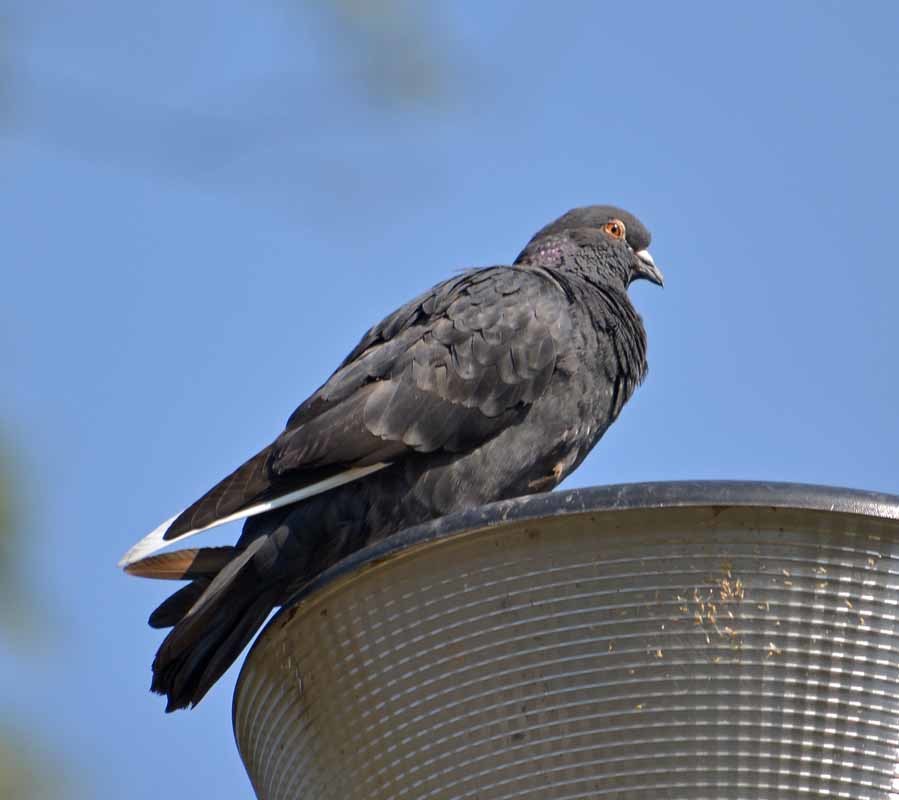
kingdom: Animalia
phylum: Chordata
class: Aves
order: Columbiformes
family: Columbidae
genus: Columba
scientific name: Columba livia
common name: Rock pigeon
